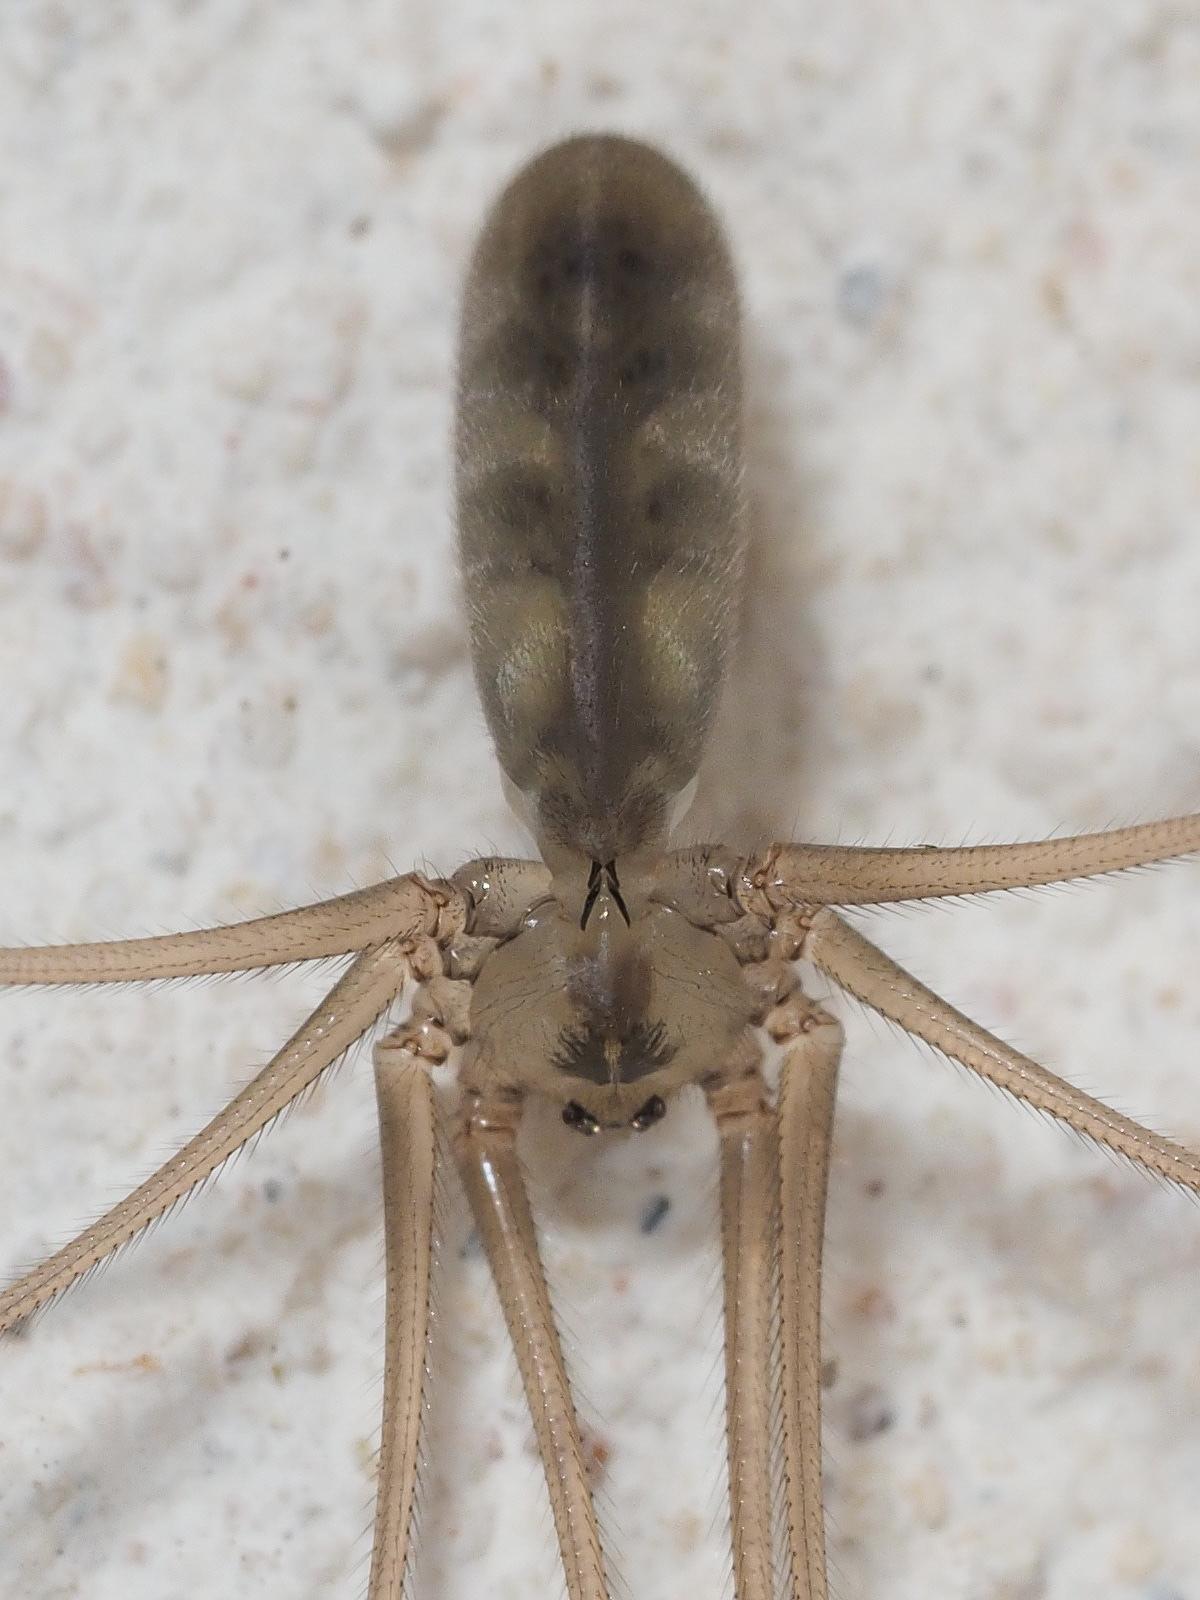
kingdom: Animalia
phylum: Arthropoda
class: Arachnida
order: Araneae
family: Pholcidae
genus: Pholcus
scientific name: Pholcus phalangioides
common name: Longbodied cellar spider
